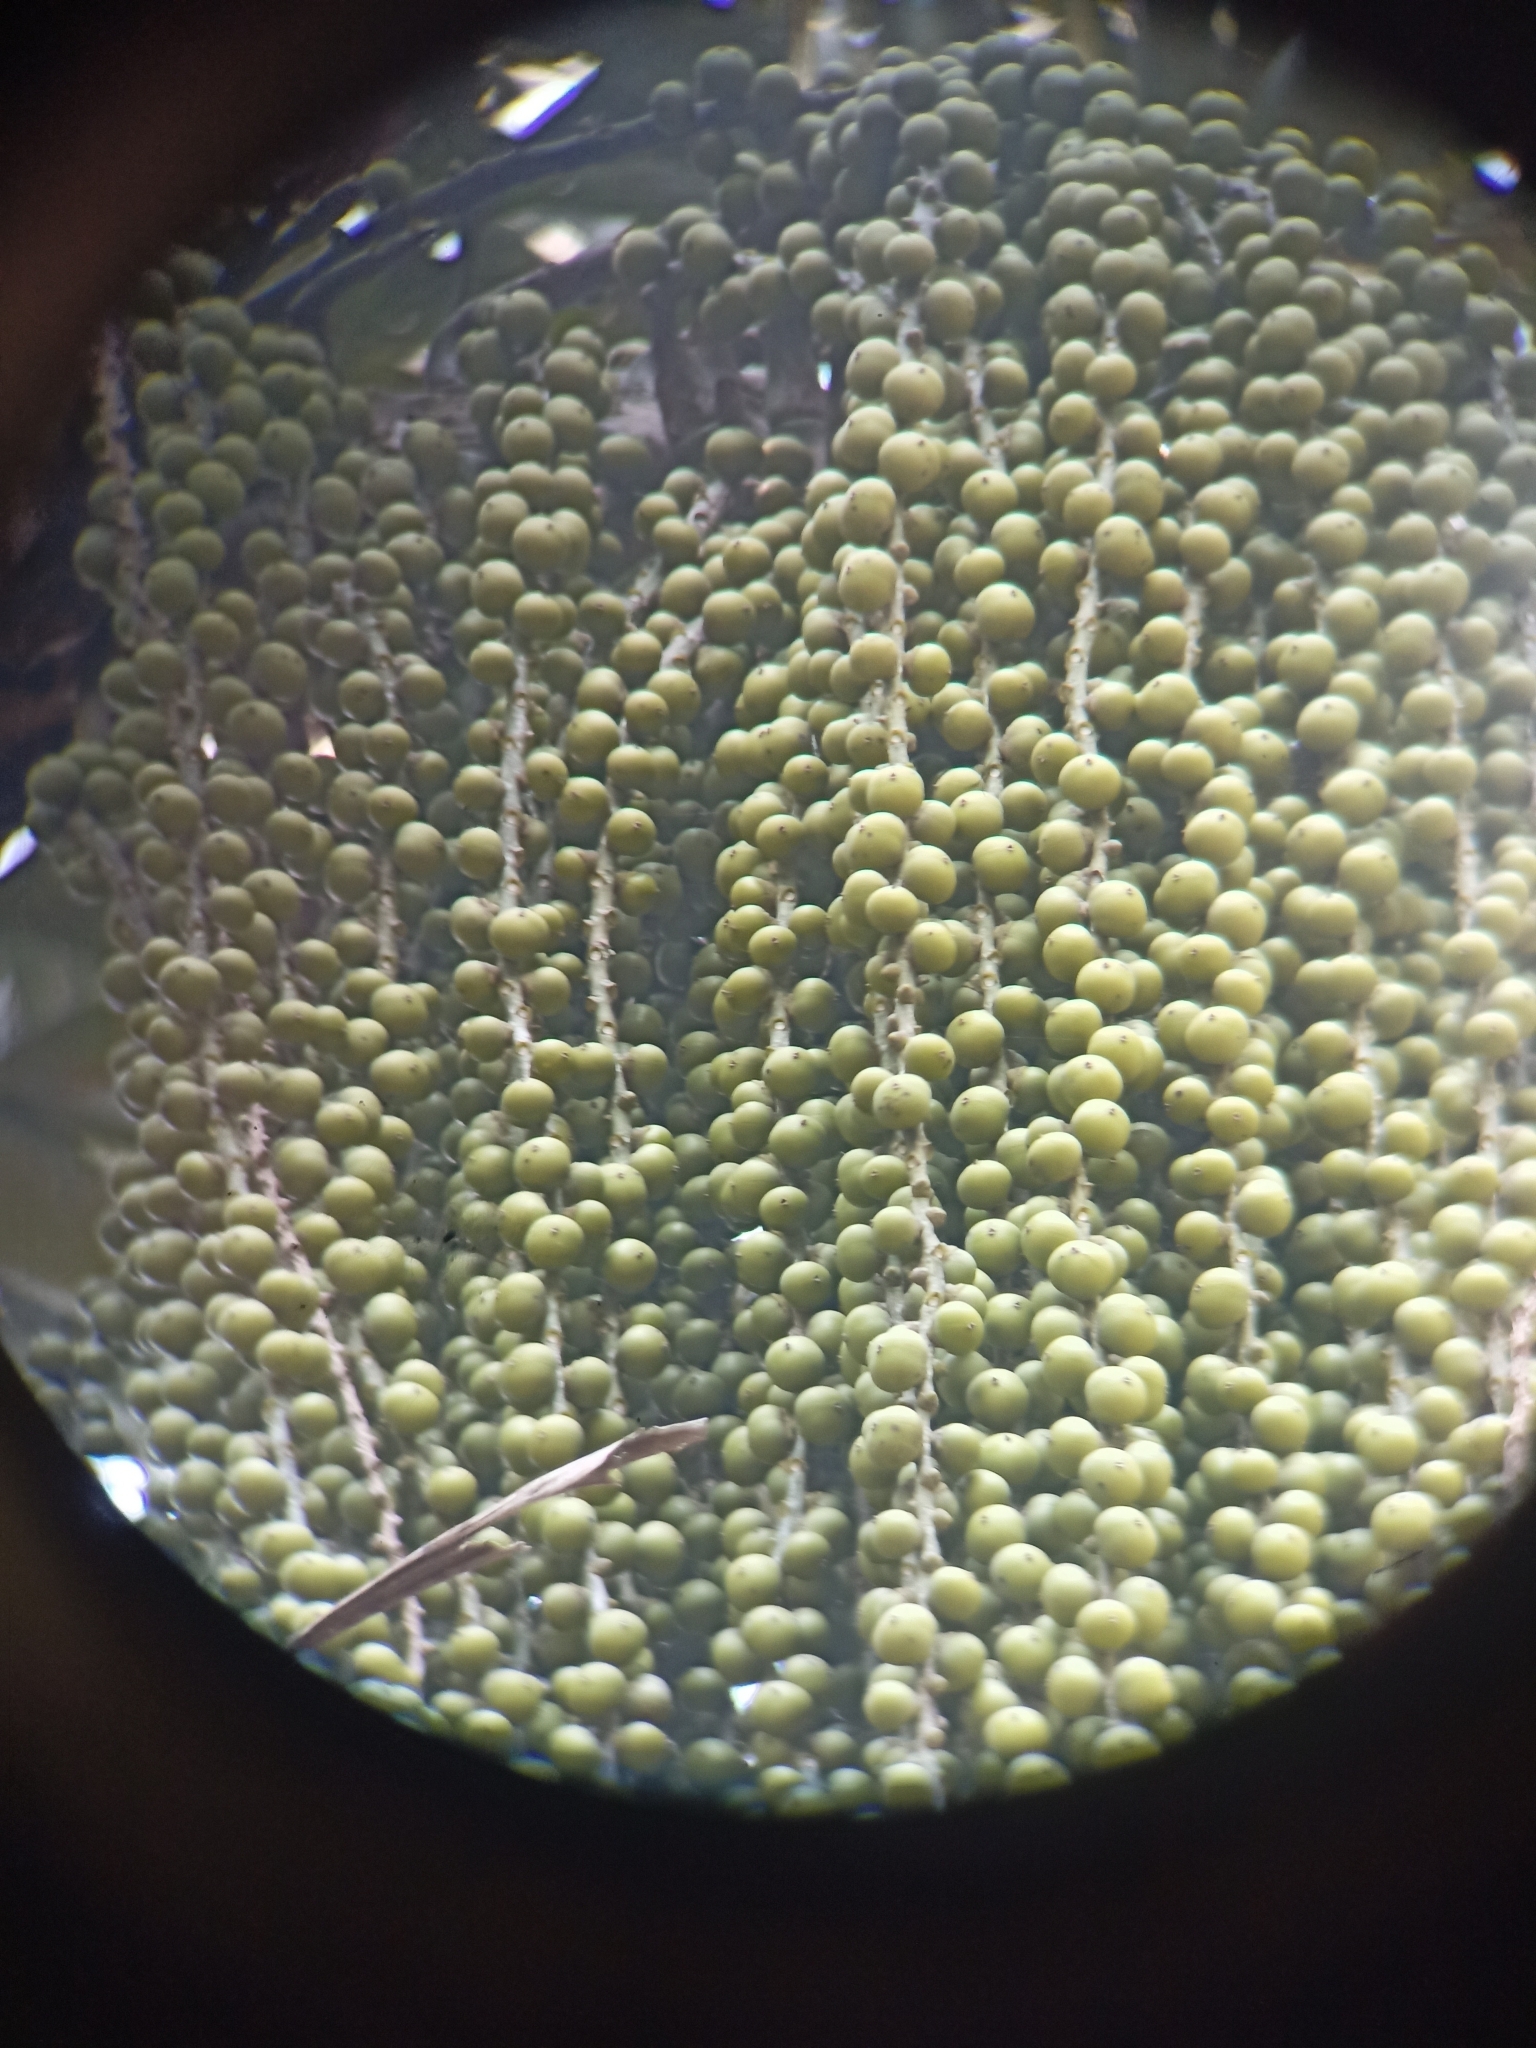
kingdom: Plantae
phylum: Tracheophyta
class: Liliopsida
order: Arecales
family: Arecaceae
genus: Caryota
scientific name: Caryota urens
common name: Jaggery palm
